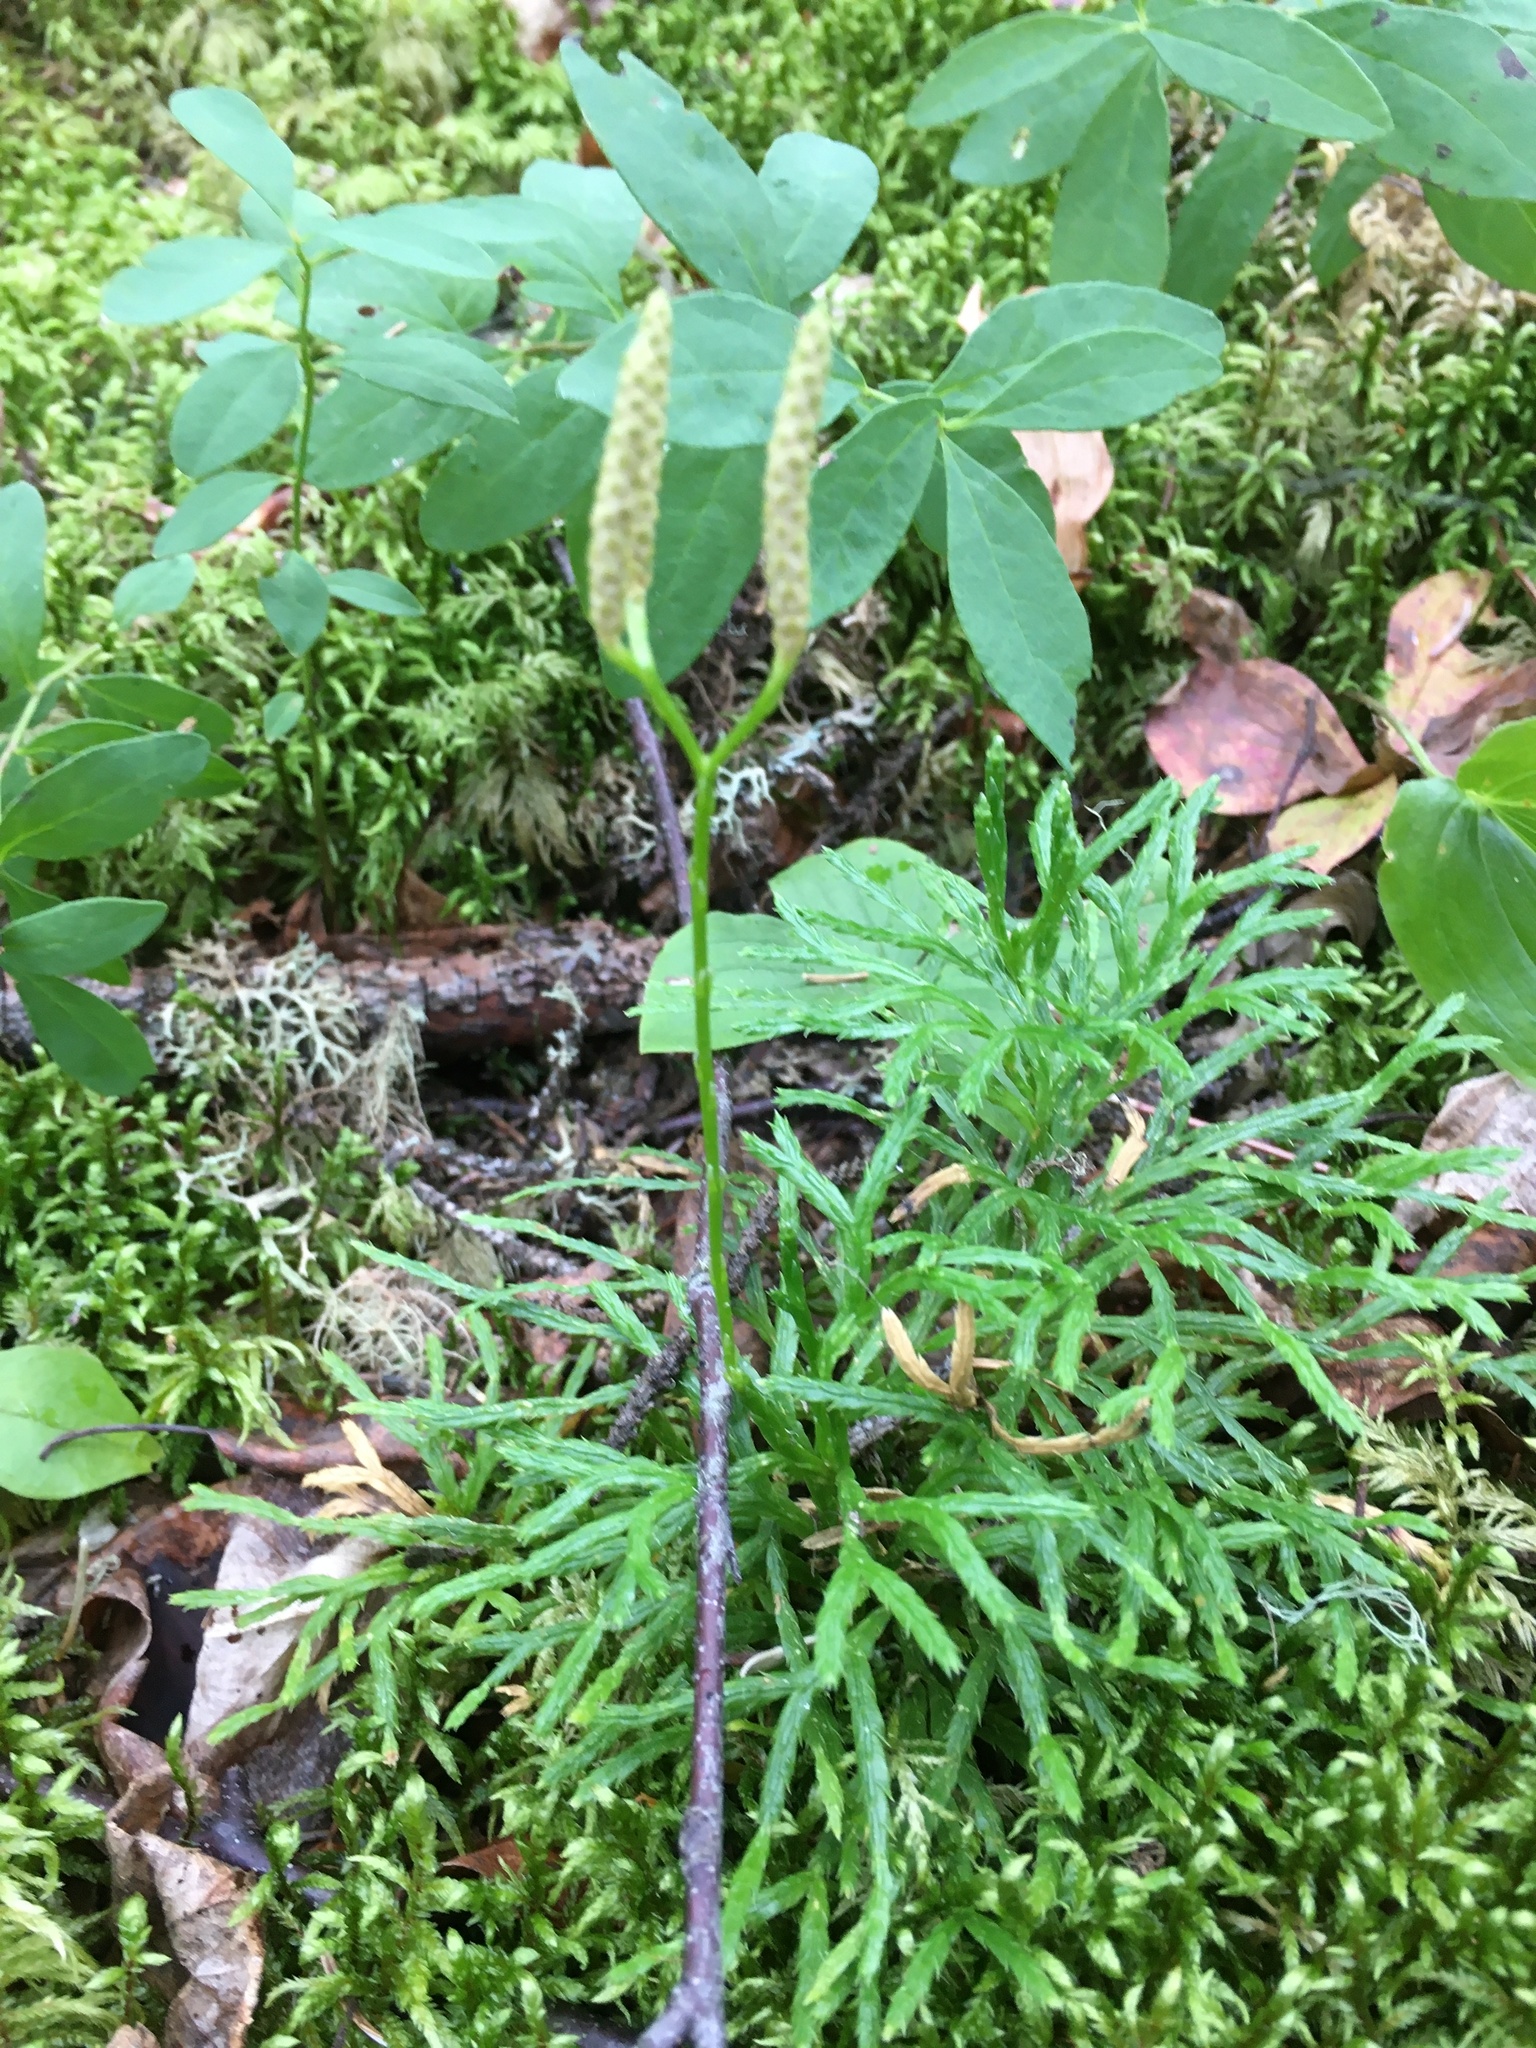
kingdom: Plantae
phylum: Tracheophyta
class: Lycopodiopsida
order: Lycopodiales
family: Lycopodiaceae
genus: Diphasiastrum
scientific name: Diphasiastrum complanatum
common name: Northern running-pine
